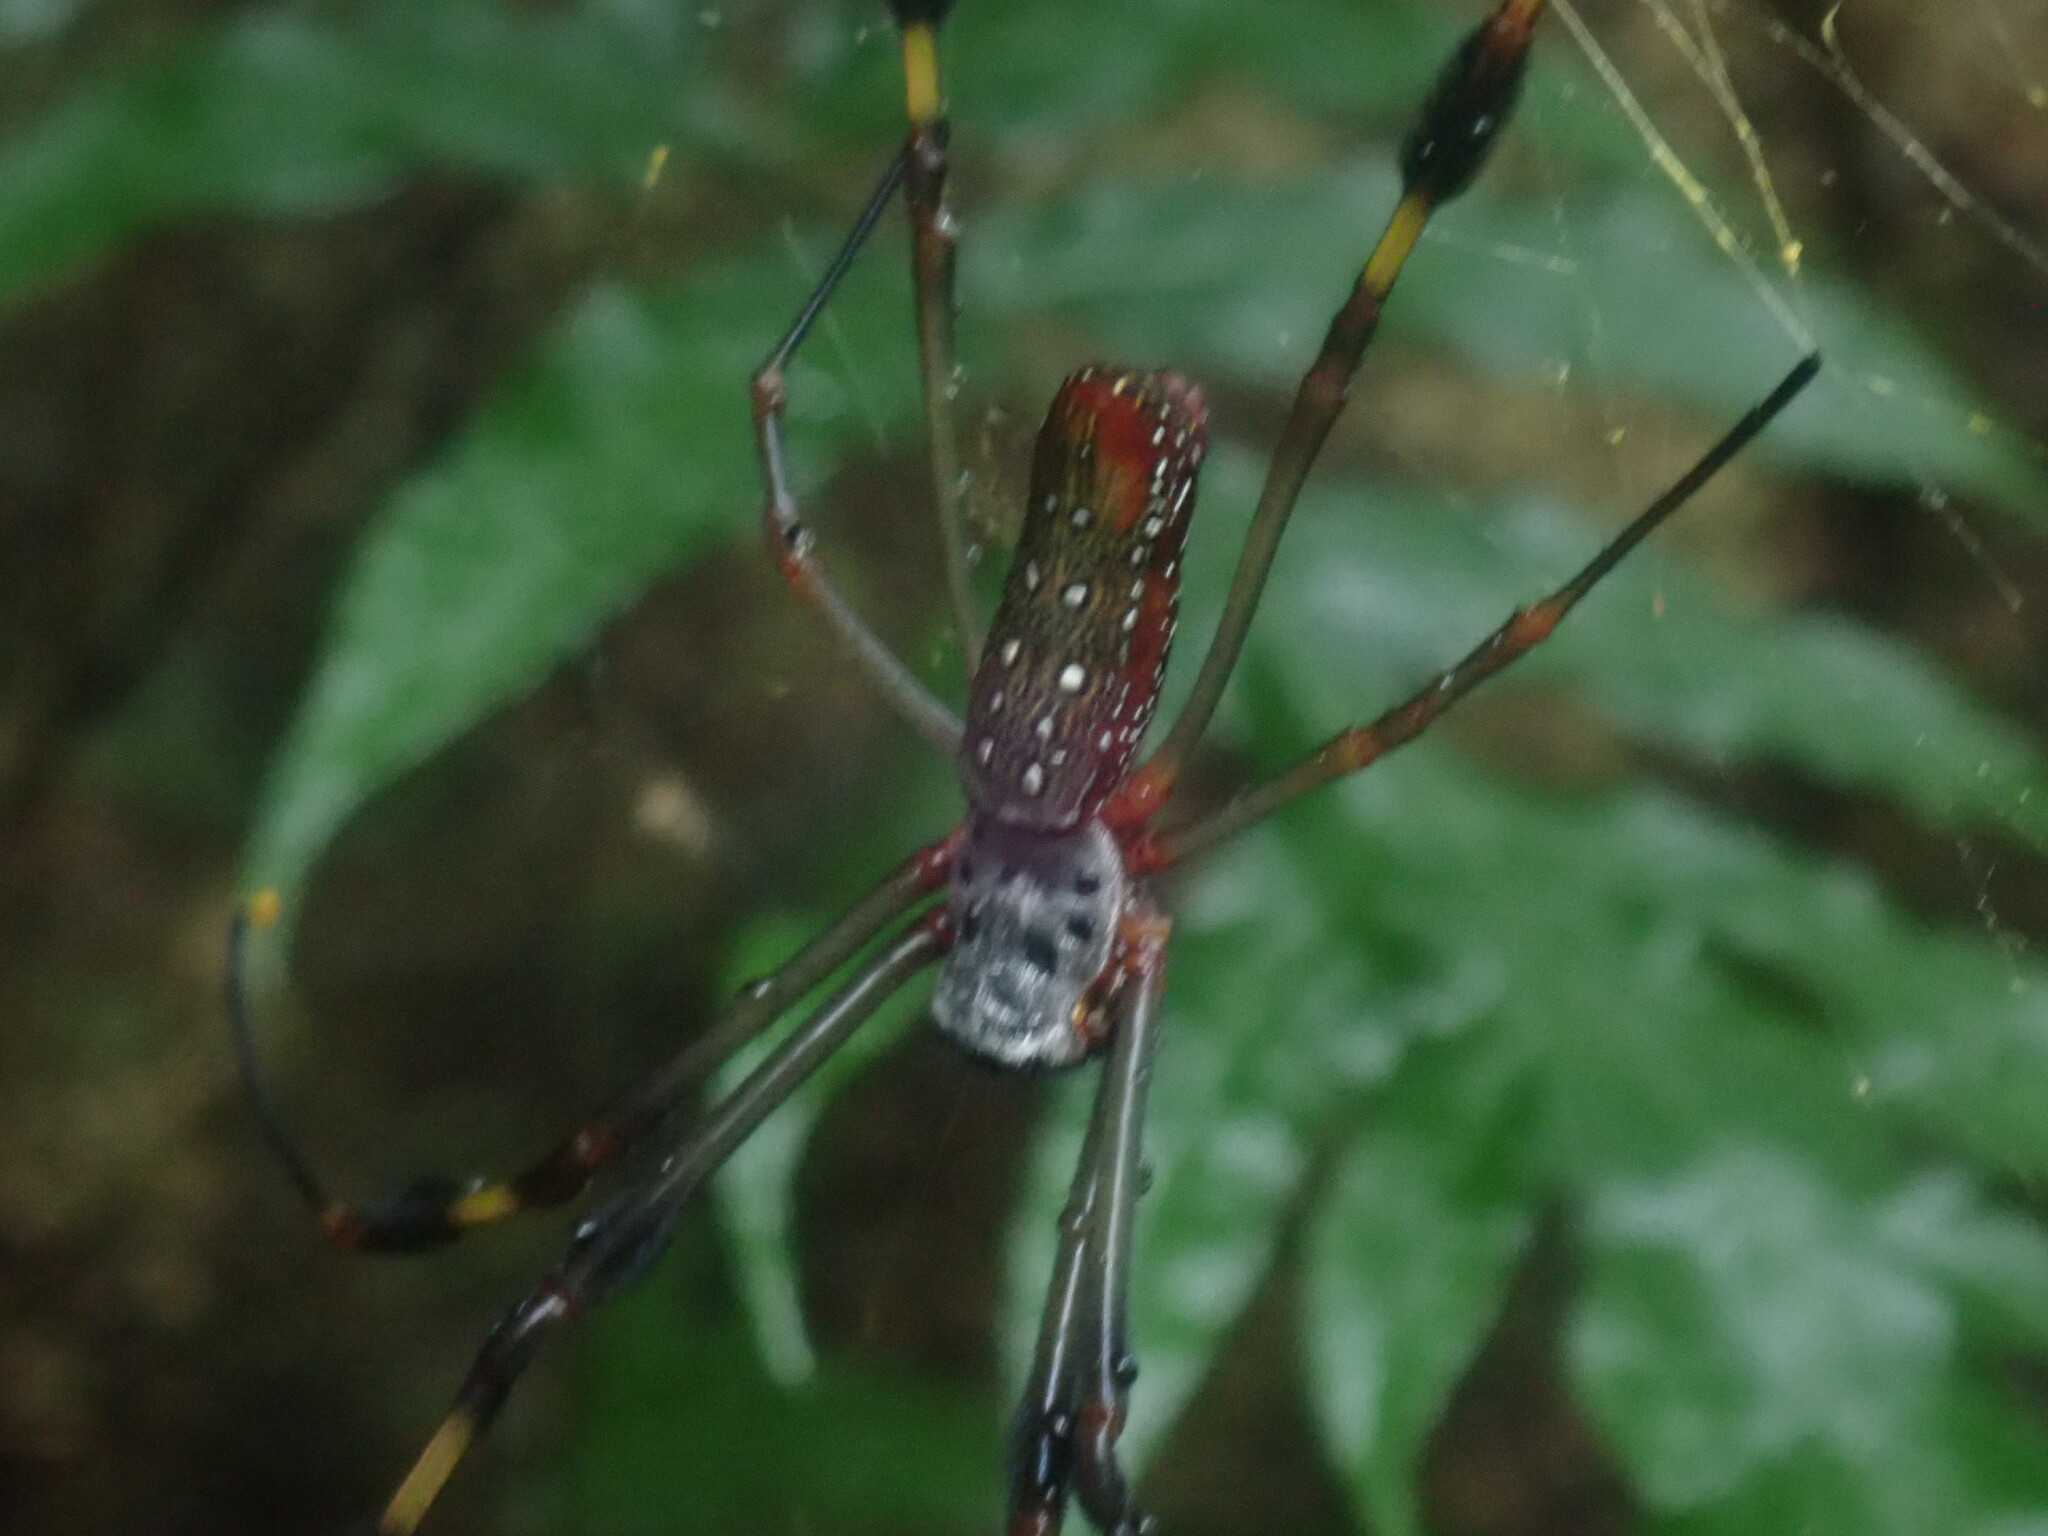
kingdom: Animalia
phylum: Arthropoda
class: Arachnida
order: Araneae
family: Araneidae
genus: Trichonephila
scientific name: Trichonephila clavipes
